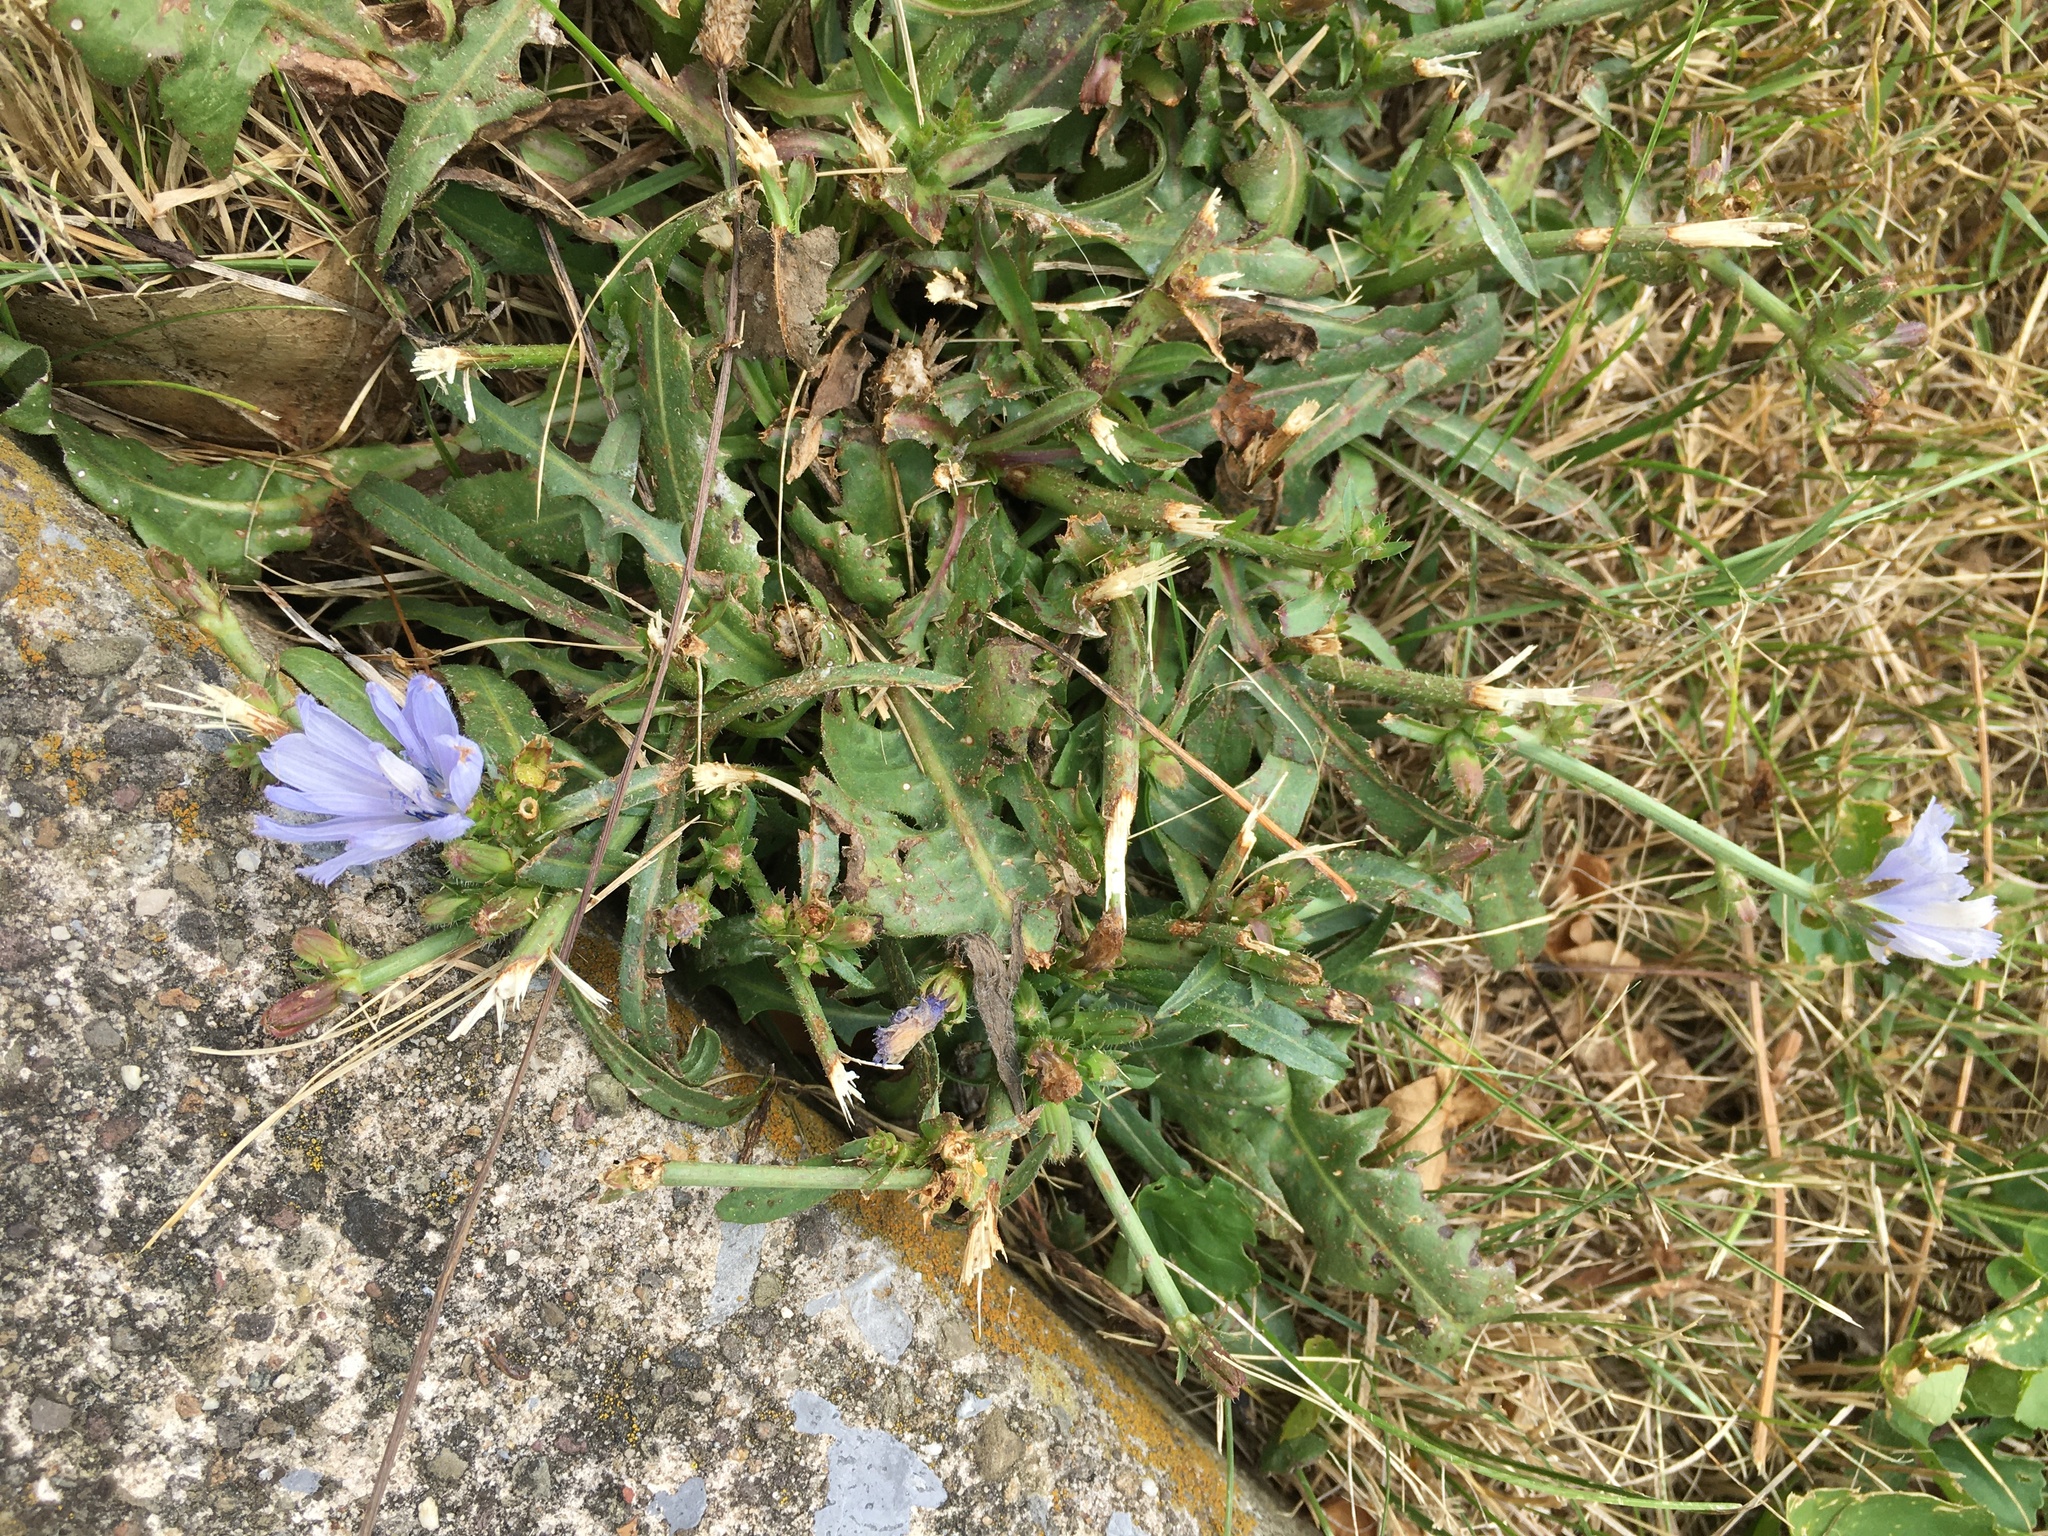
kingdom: Plantae
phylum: Tracheophyta
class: Magnoliopsida
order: Asterales
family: Asteraceae
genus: Cichorium
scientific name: Cichorium intybus
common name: Chicory
